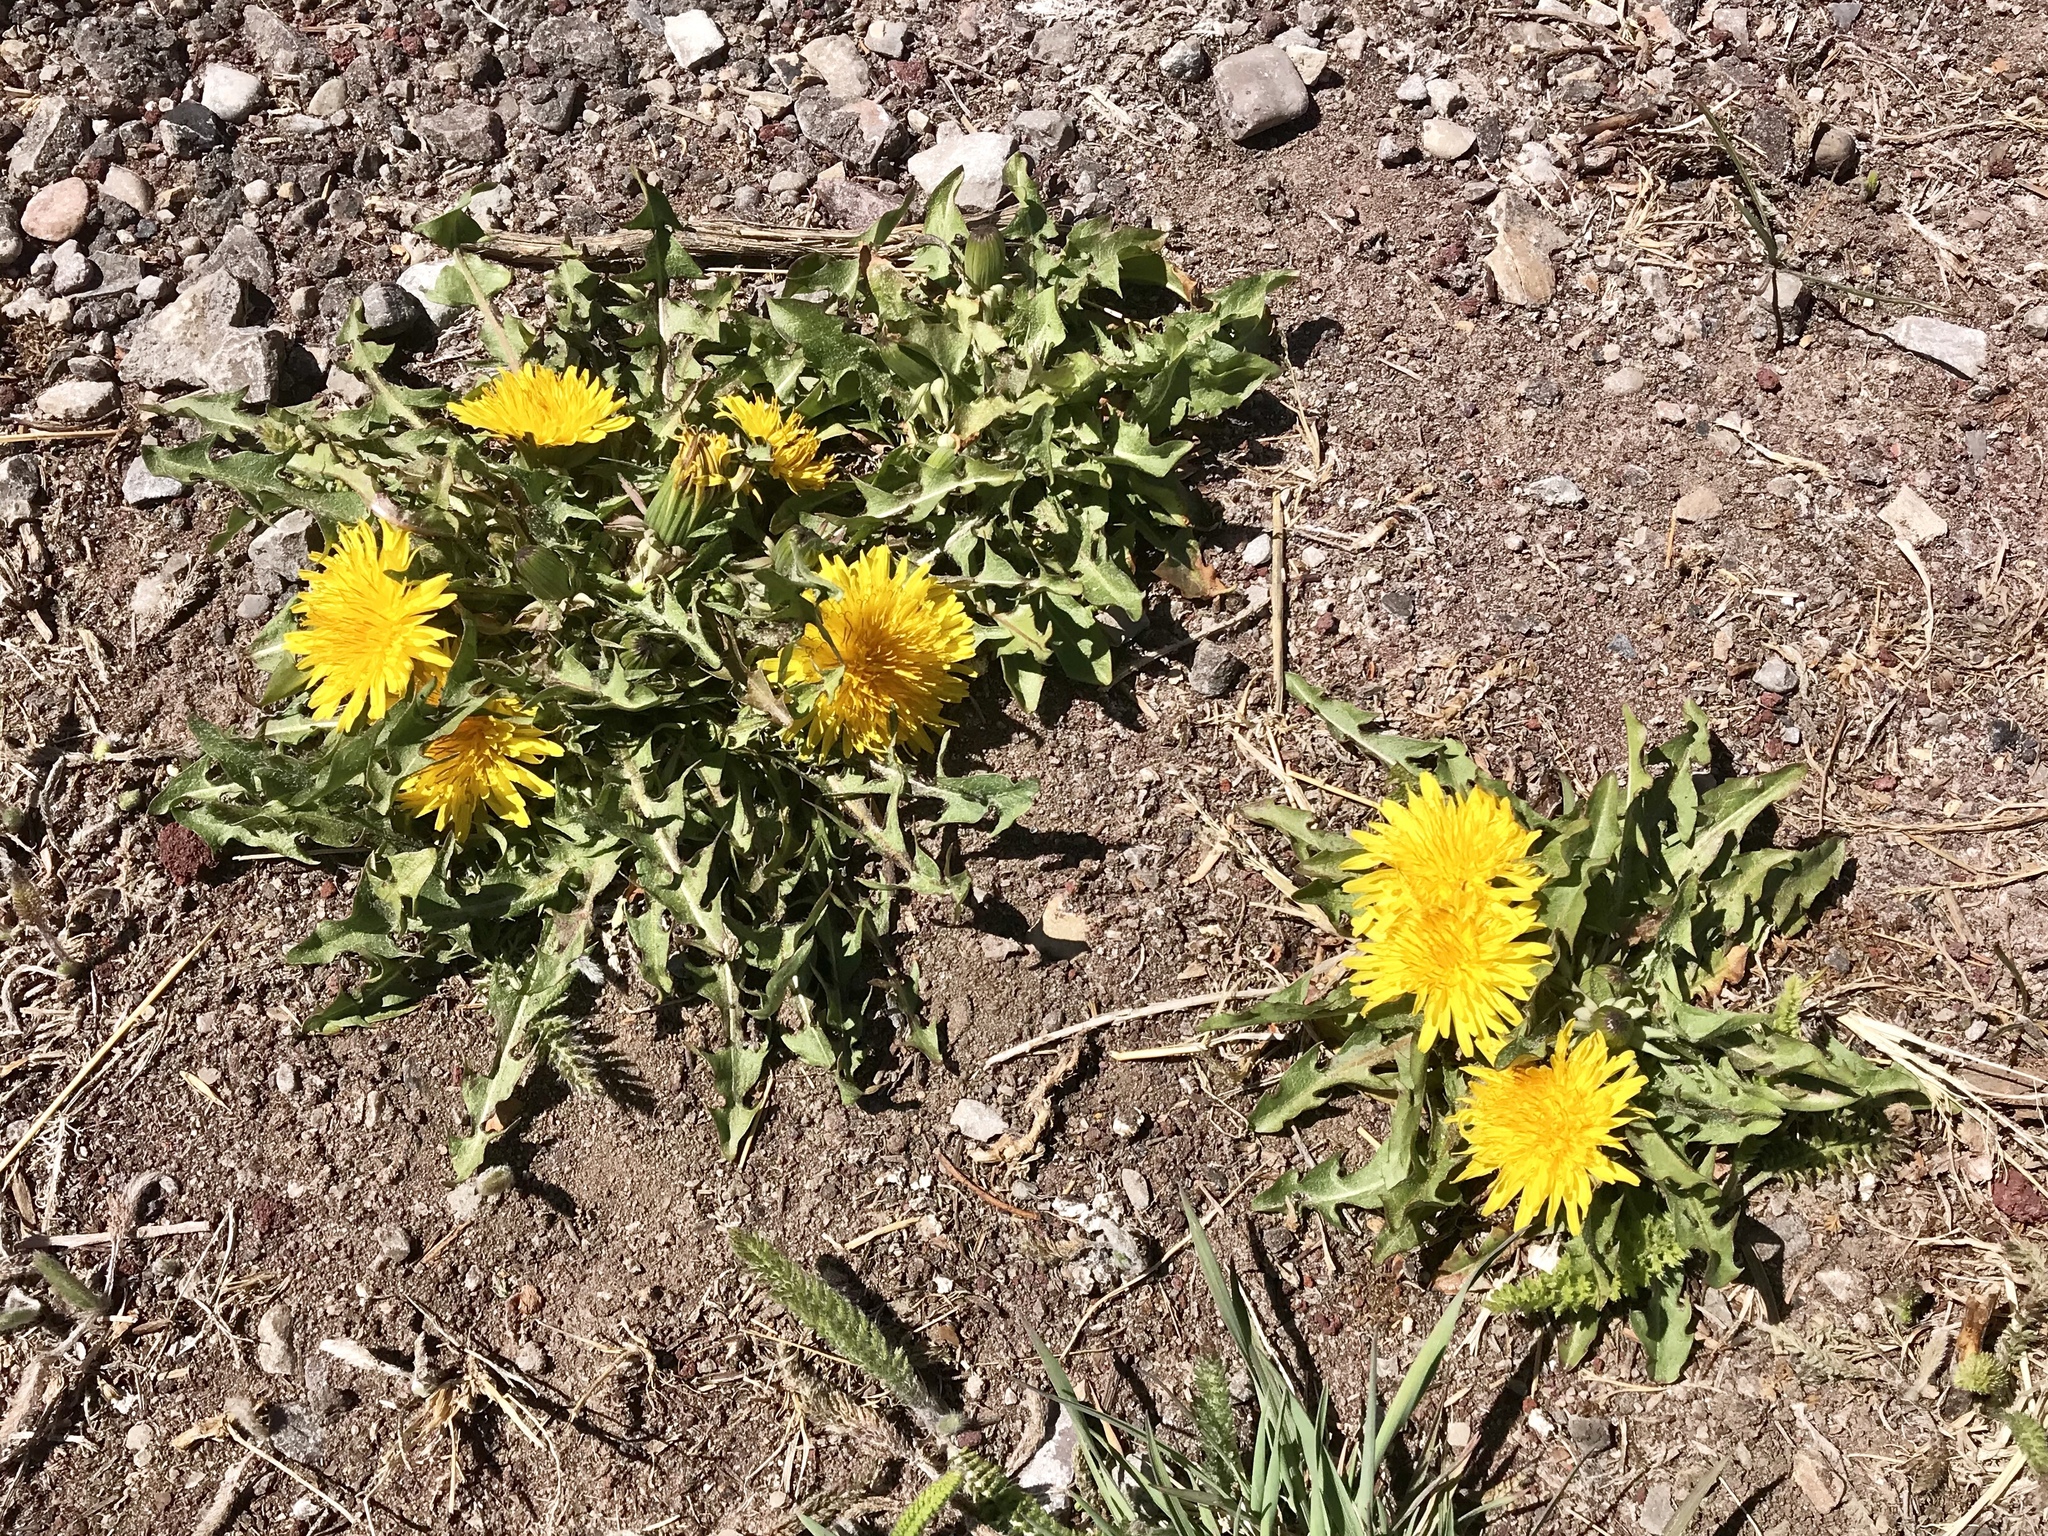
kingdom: Plantae
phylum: Tracheophyta
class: Magnoliopsida
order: Asterales
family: Asteraceae
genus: Taraxacum
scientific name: Taraxacum officinale
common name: Common dandelion
